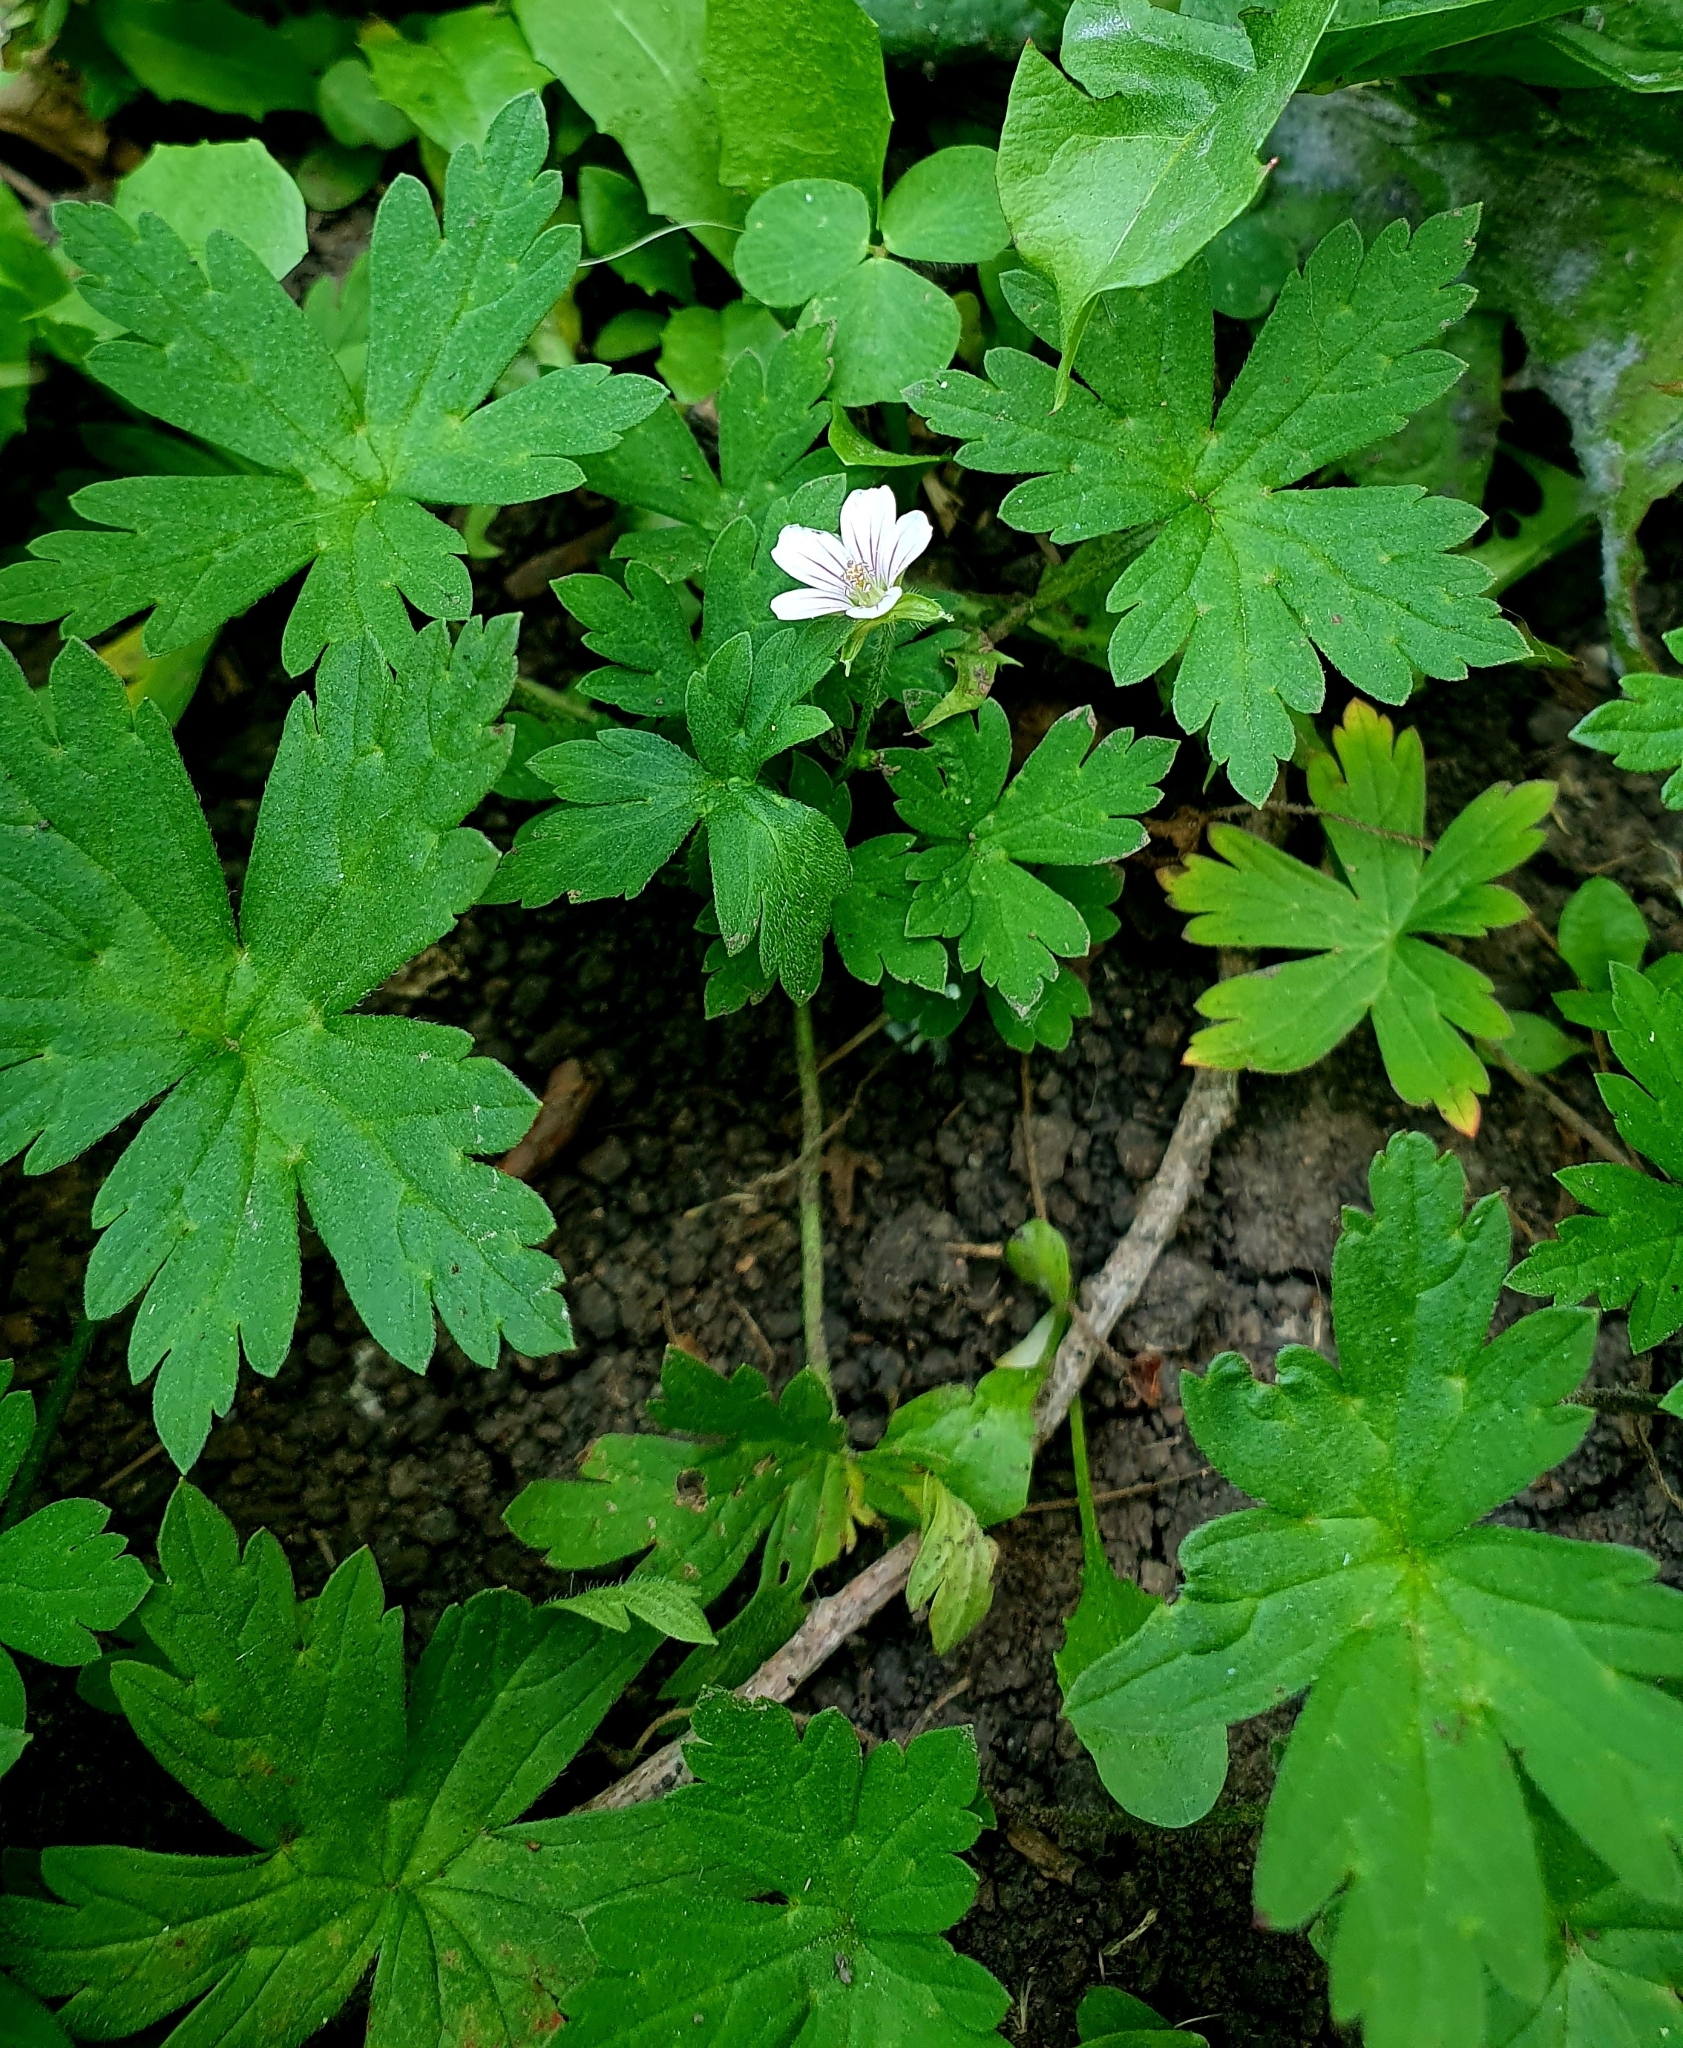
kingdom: Plantae
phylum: Tracheophyta
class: Magnoliopsida
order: Geraniales
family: Geraniaceae
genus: Geranium
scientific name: Geranium sibiricum
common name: Siberian crane's-bill
